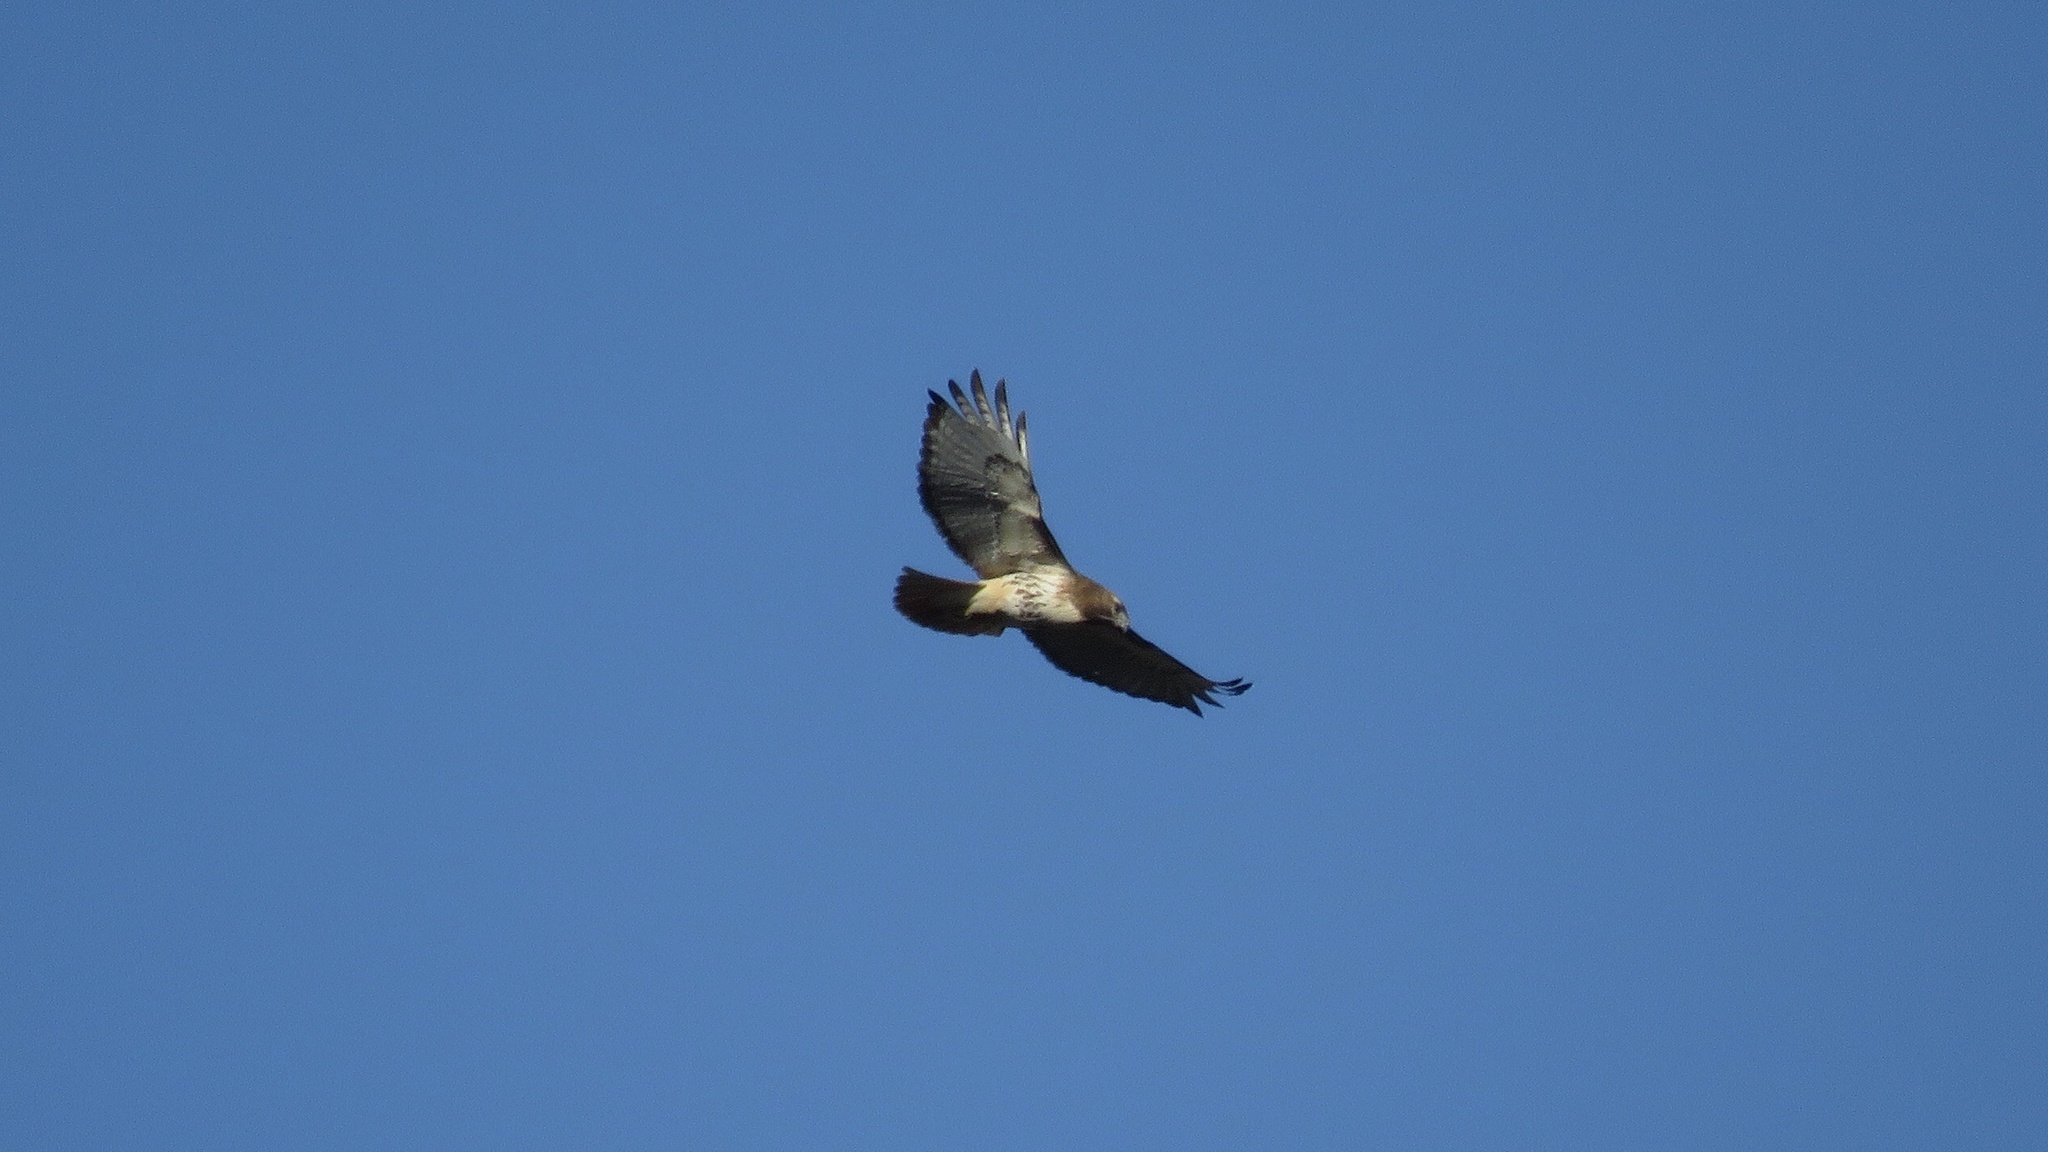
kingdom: Animalia
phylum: Chordata
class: Aves
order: Accipitriformes
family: Accipitridae
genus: Buteo
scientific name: Buteo jamaicensis
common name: Red-tailed hawk
